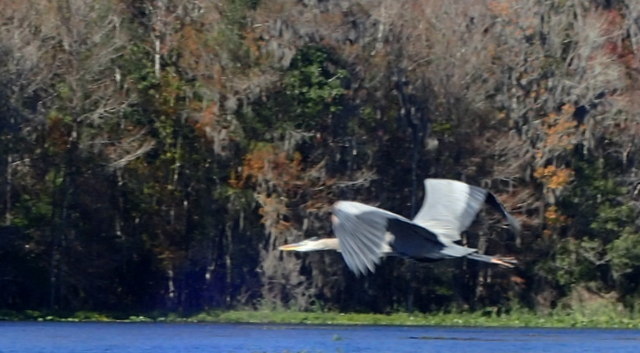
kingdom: Animalia
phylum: Chordata
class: Aves
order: Pelecaniformes
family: Ardeidae
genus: Ardea
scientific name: Ardea herodias
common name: Great blue heron
